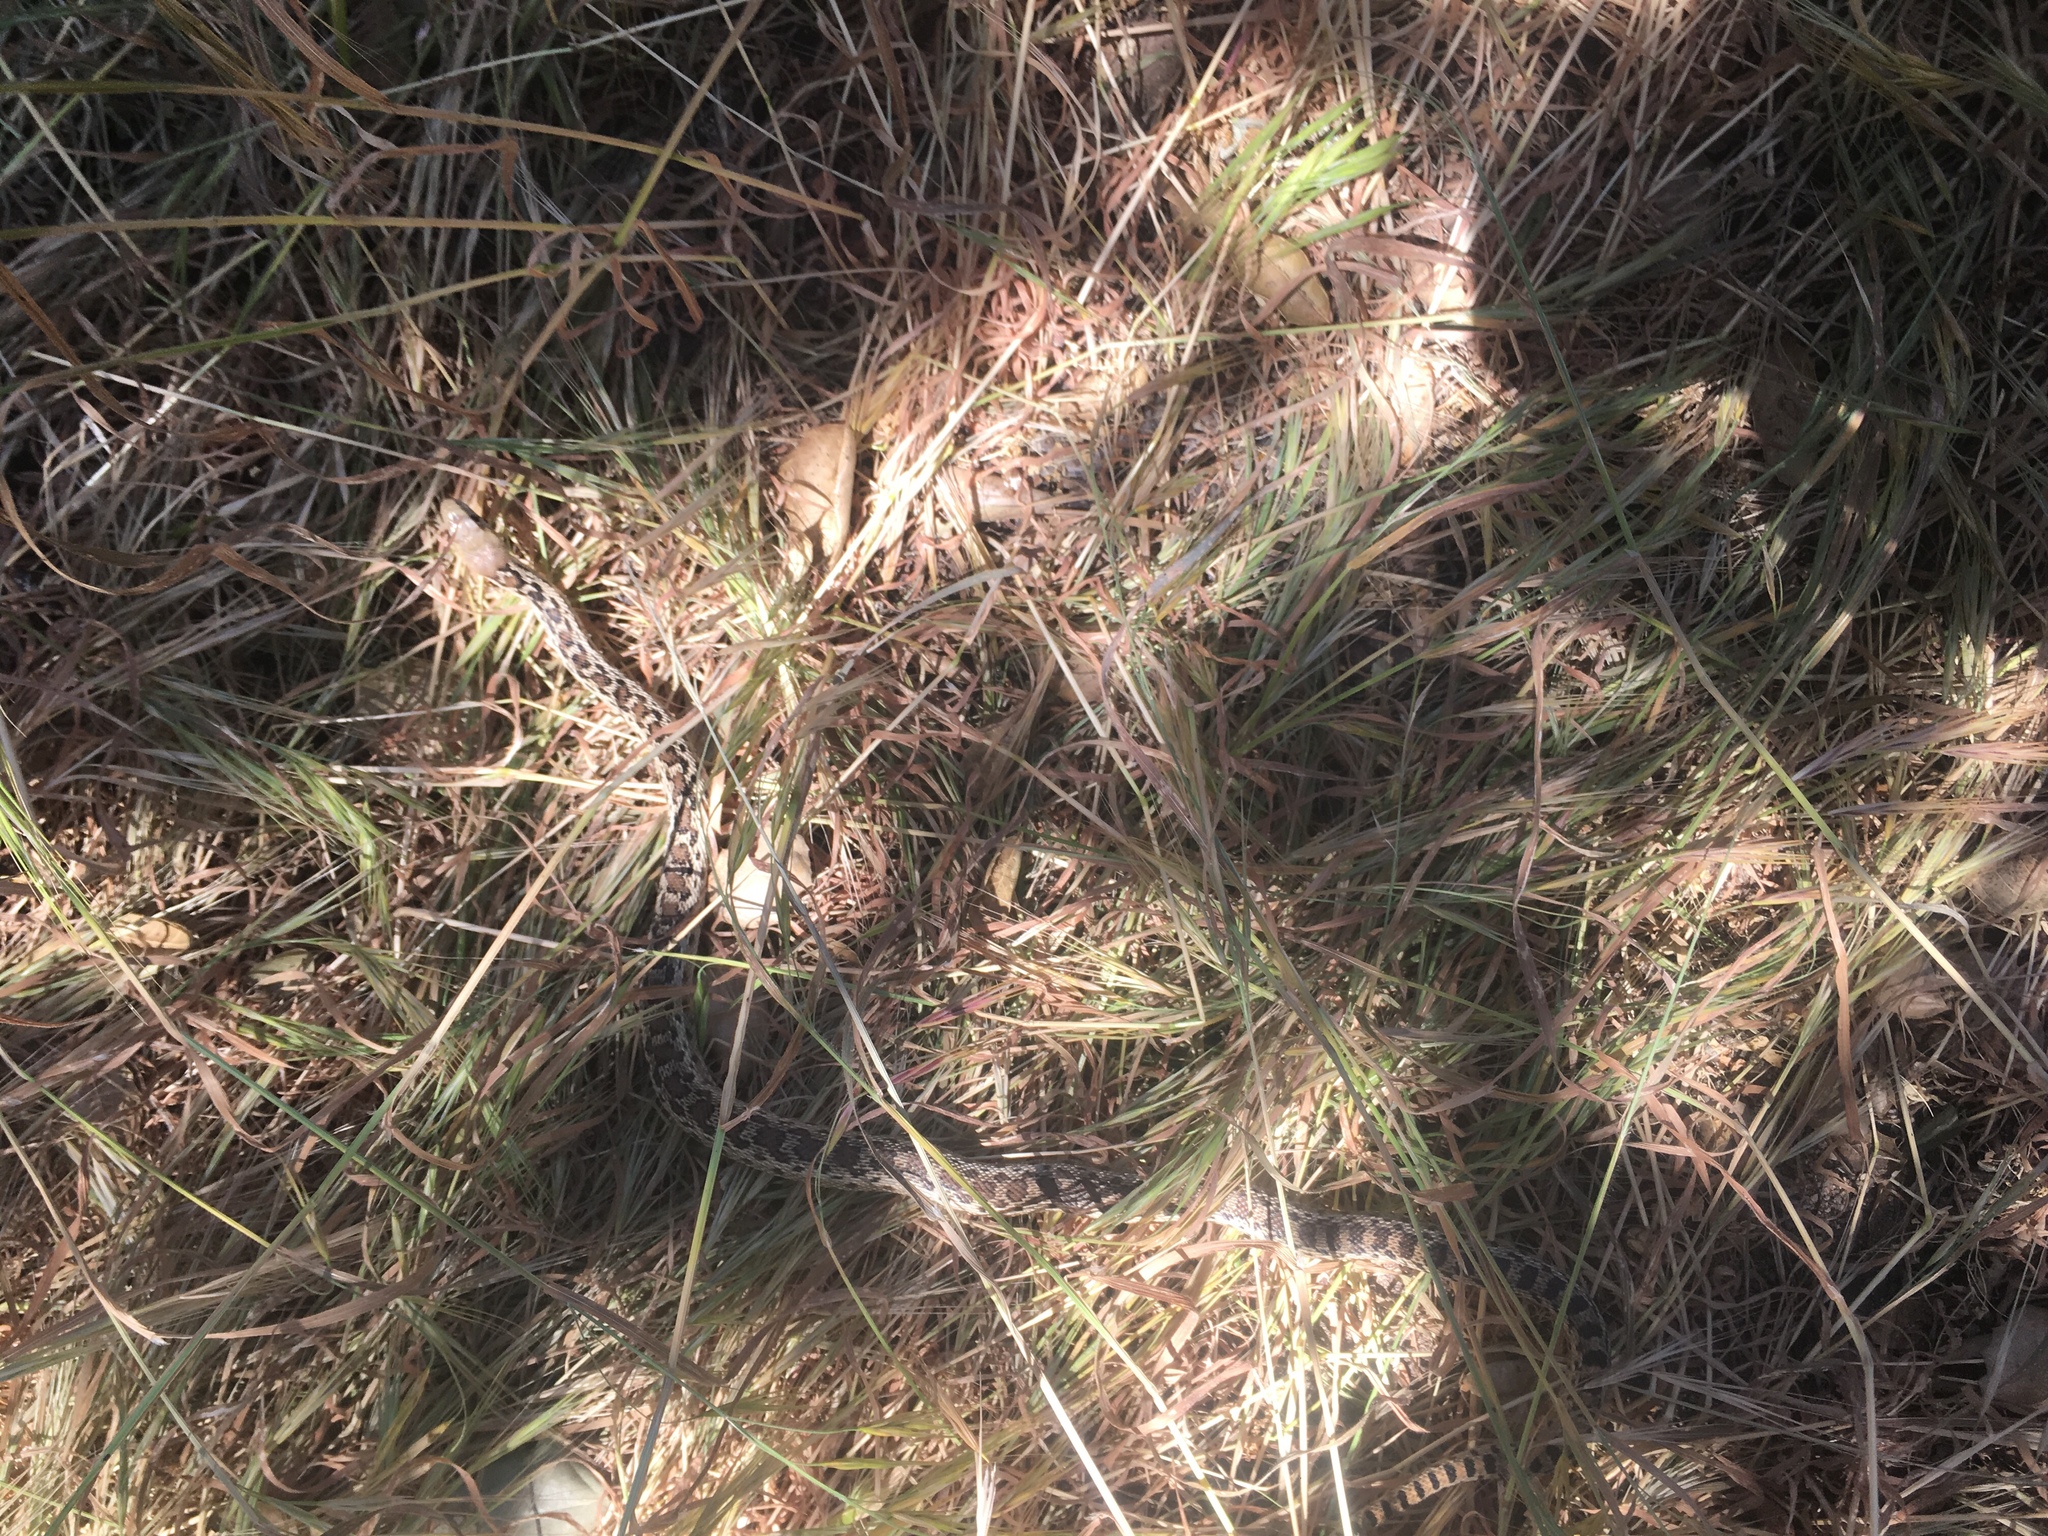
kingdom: Animalia
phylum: Chordata
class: Squamata
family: Colubridae
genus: Pituophis
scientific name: Pituophis catenifer
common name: Gopher snake
